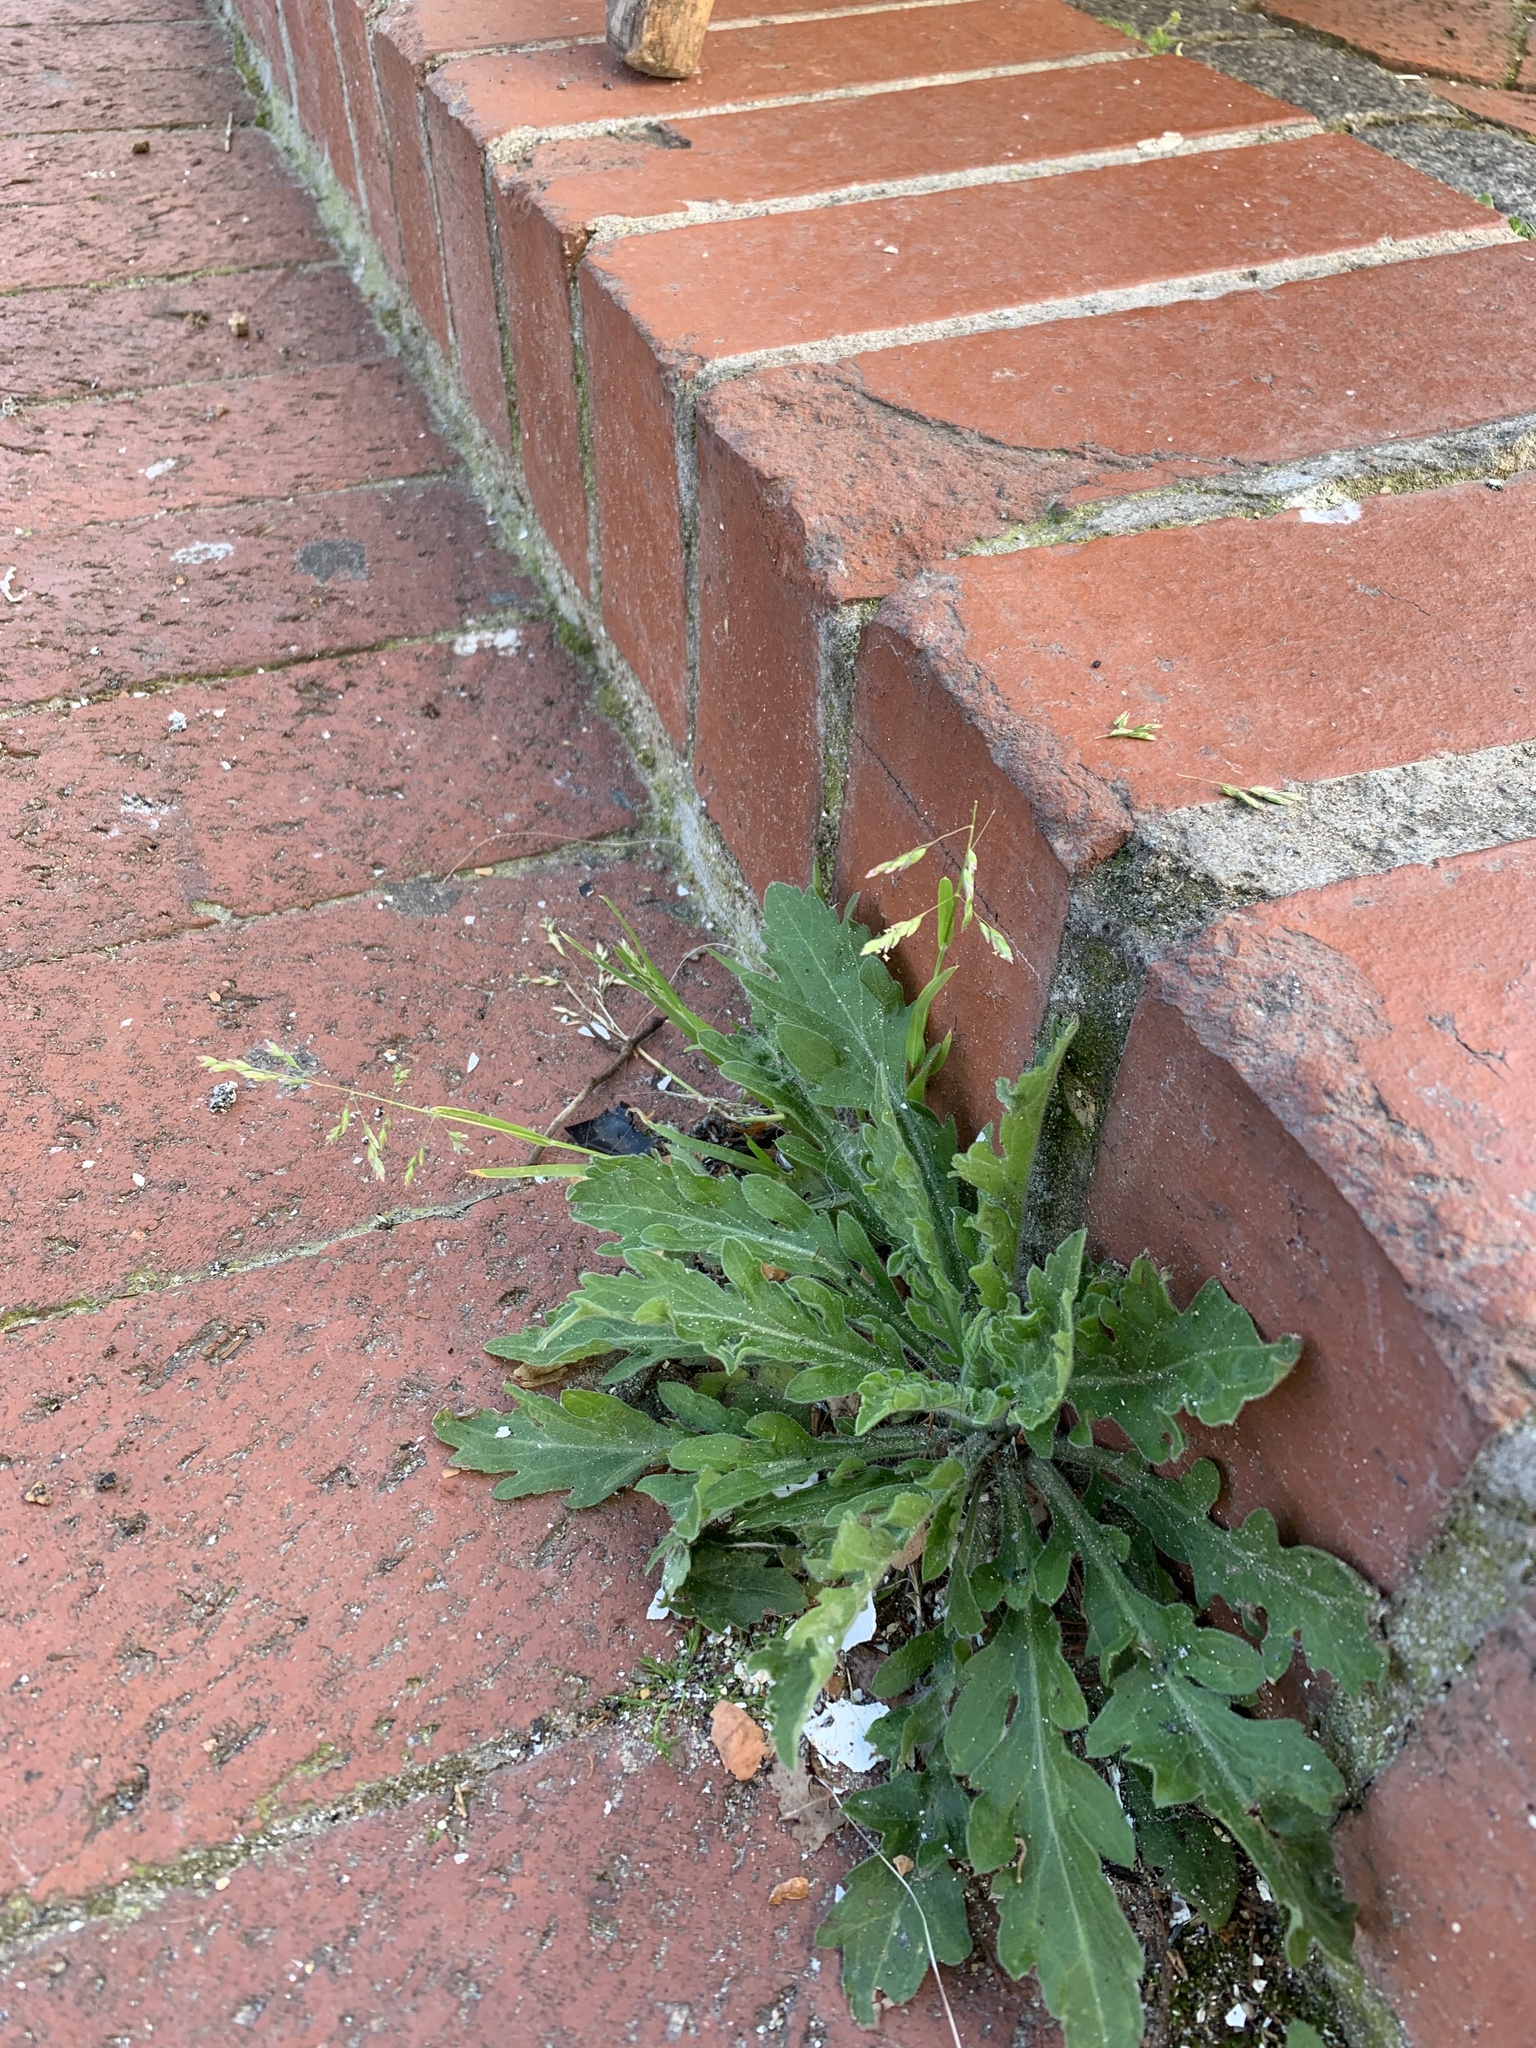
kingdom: Plantae
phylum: Tracheophyta
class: Liliopsida
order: Poales
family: Poaceae
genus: Poa
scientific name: Poa annua
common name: Annual bluegrass
